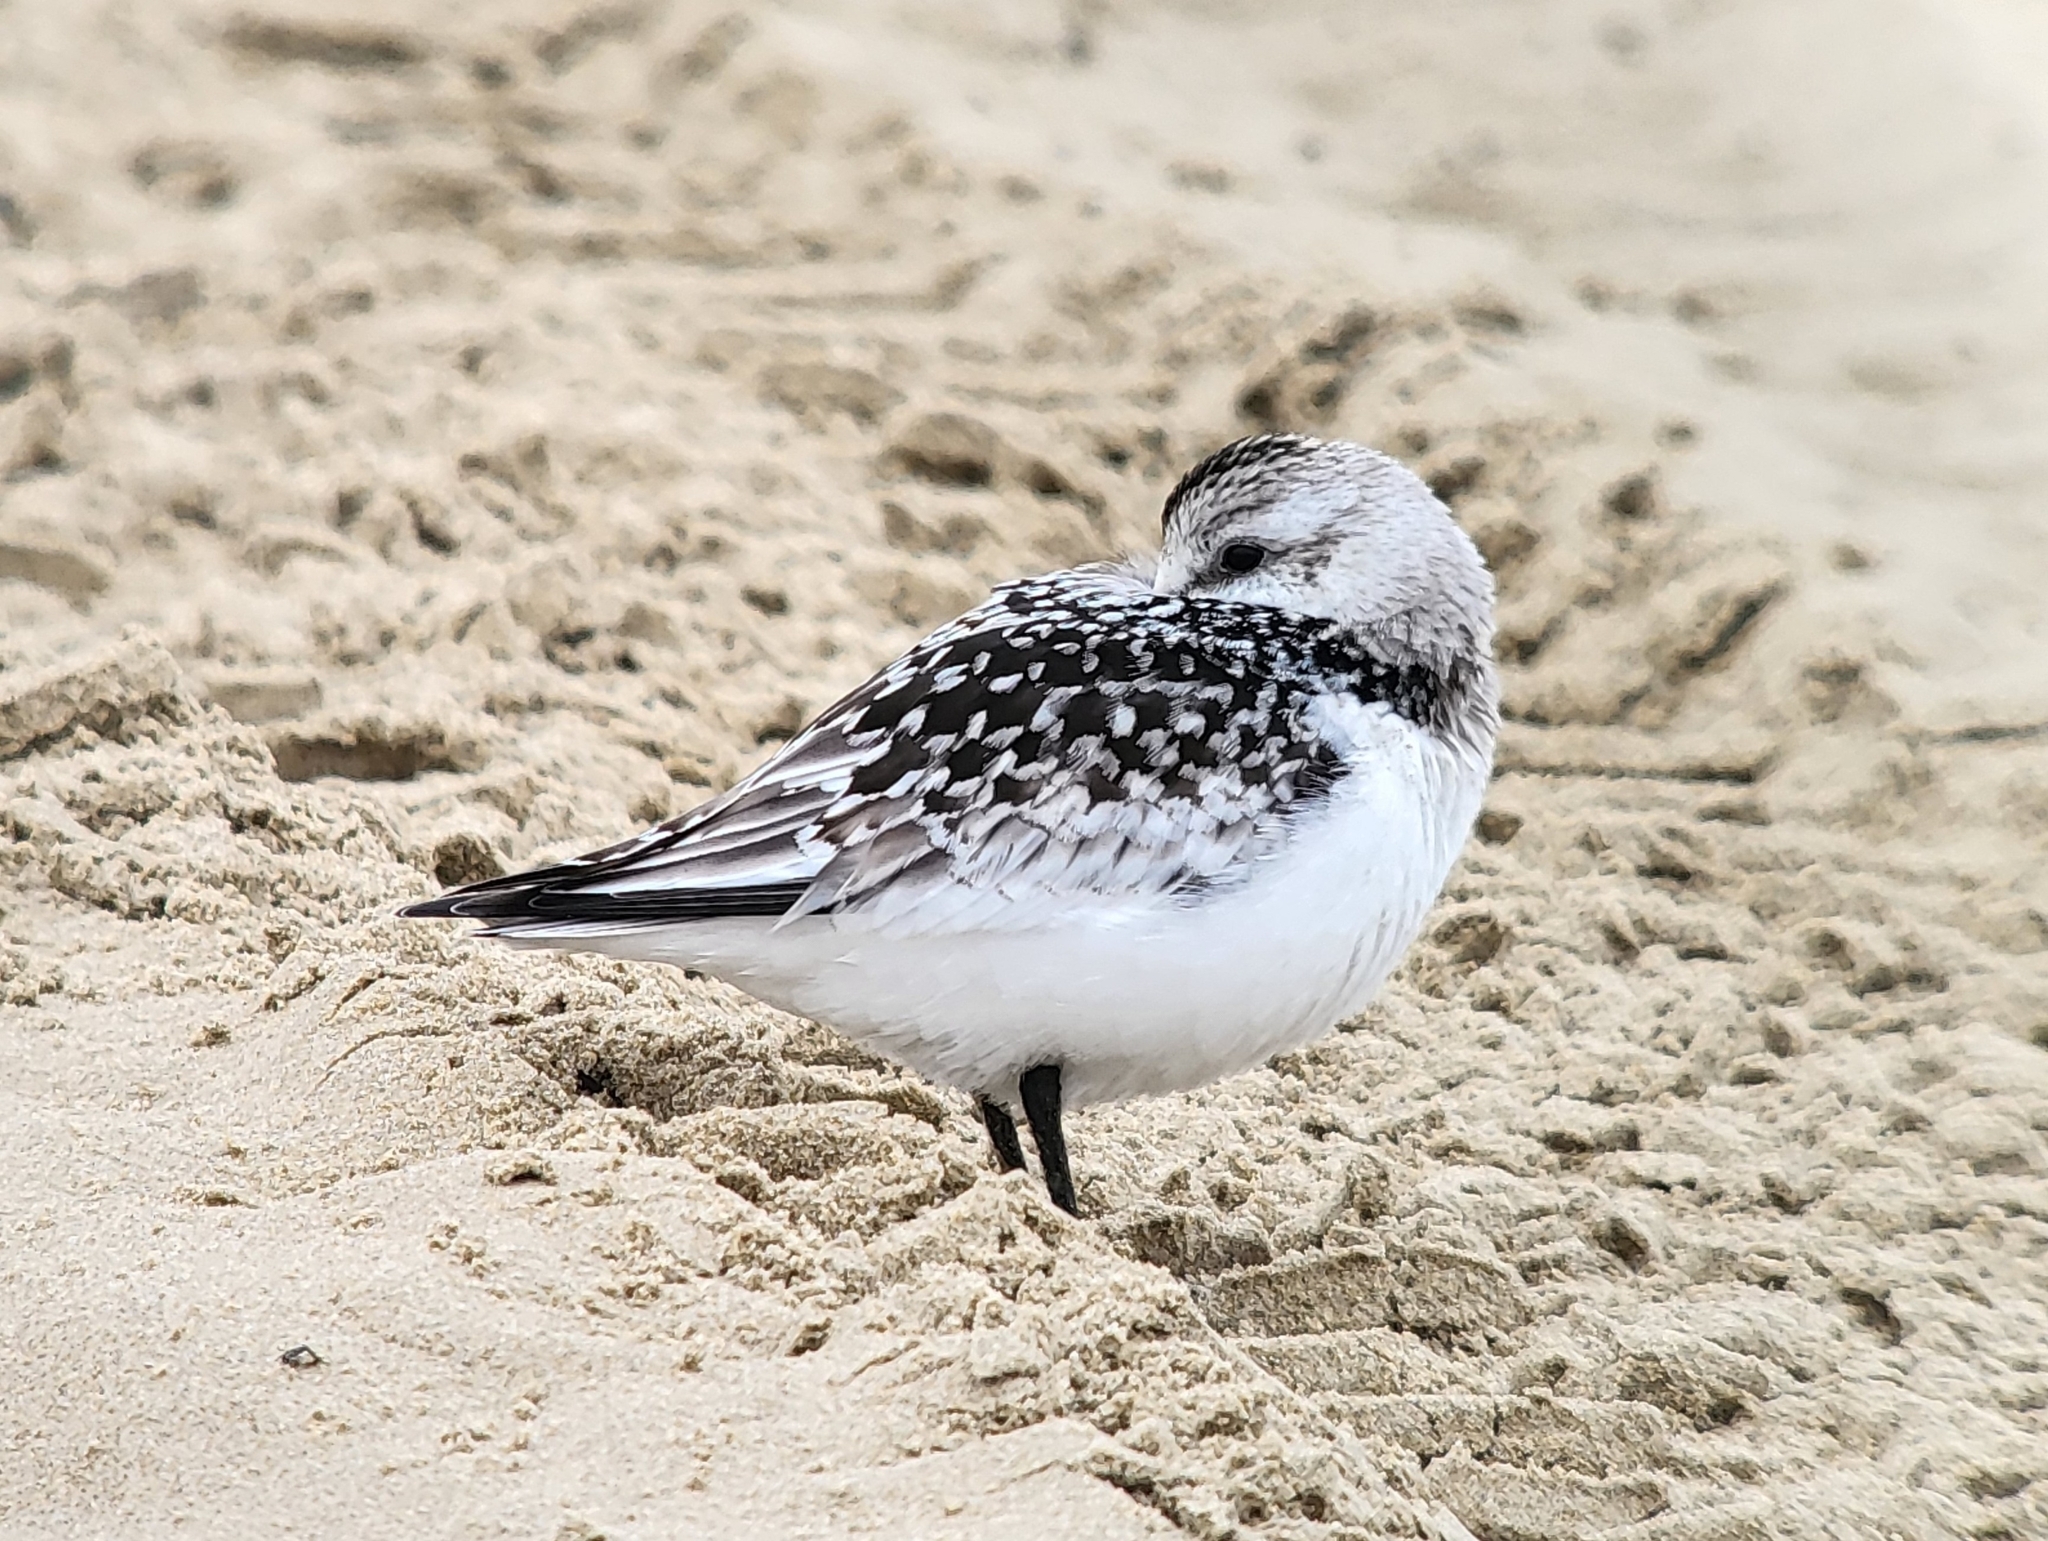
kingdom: Animalia
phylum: Chordata
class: Aves
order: Charadriiformes
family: Scolopacidae
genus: Calidris
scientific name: Calidris alba
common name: Sanderling
